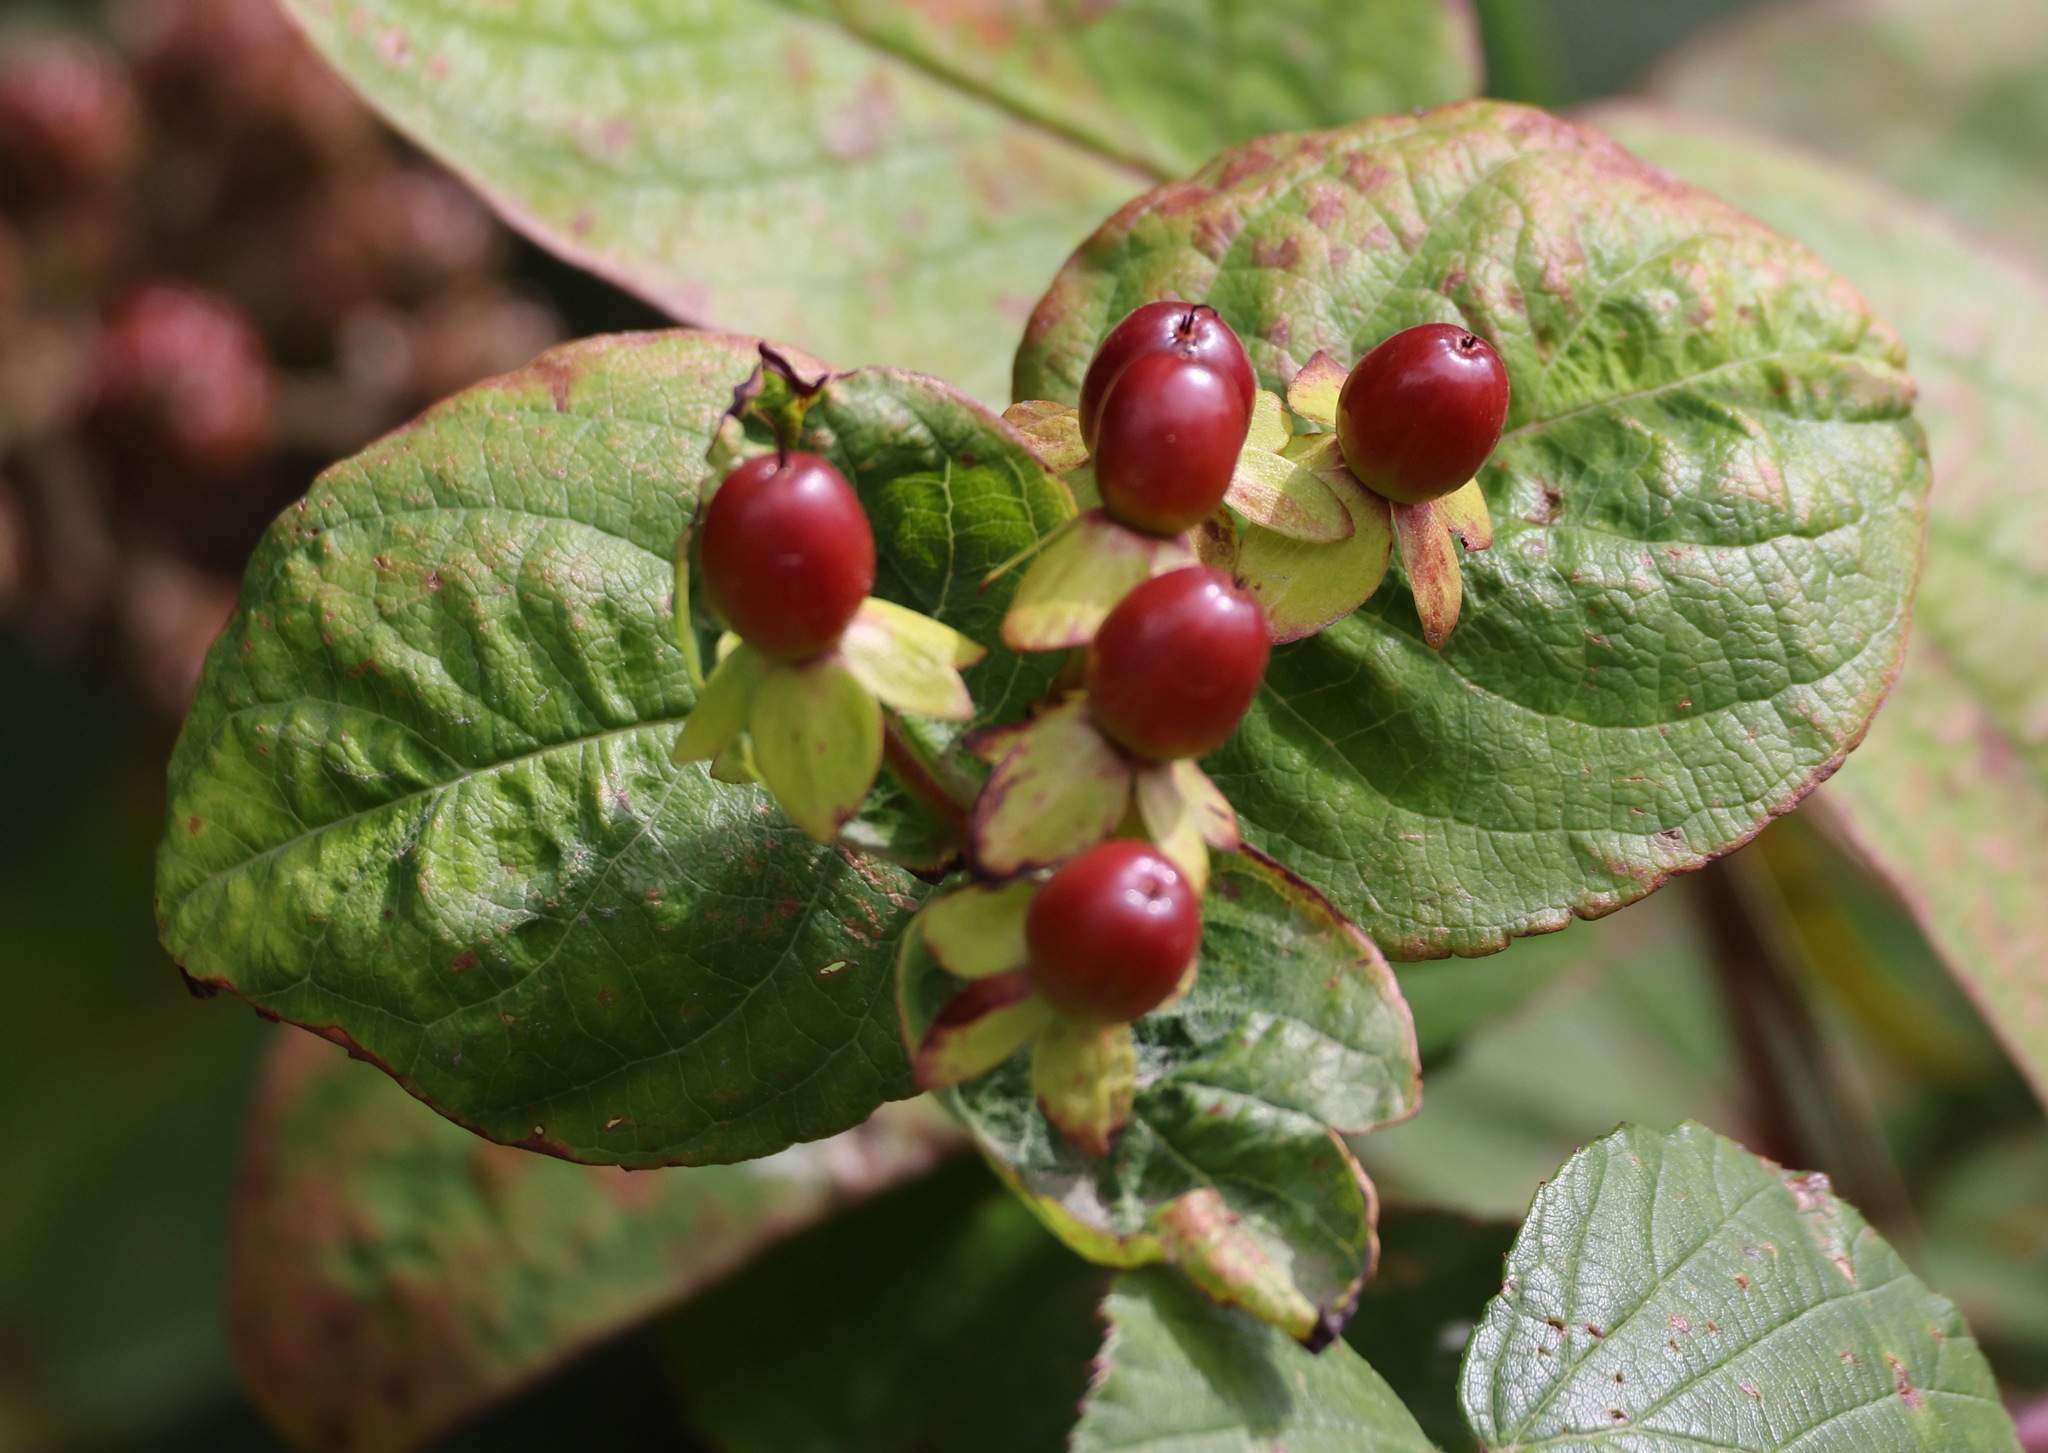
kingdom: Plantae
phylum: Tracheophyta
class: Magnoliopsida
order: Malpighiales
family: Hypericaceae
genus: Hypericum
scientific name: Hypericum androsaemum
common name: Sweet-amber
